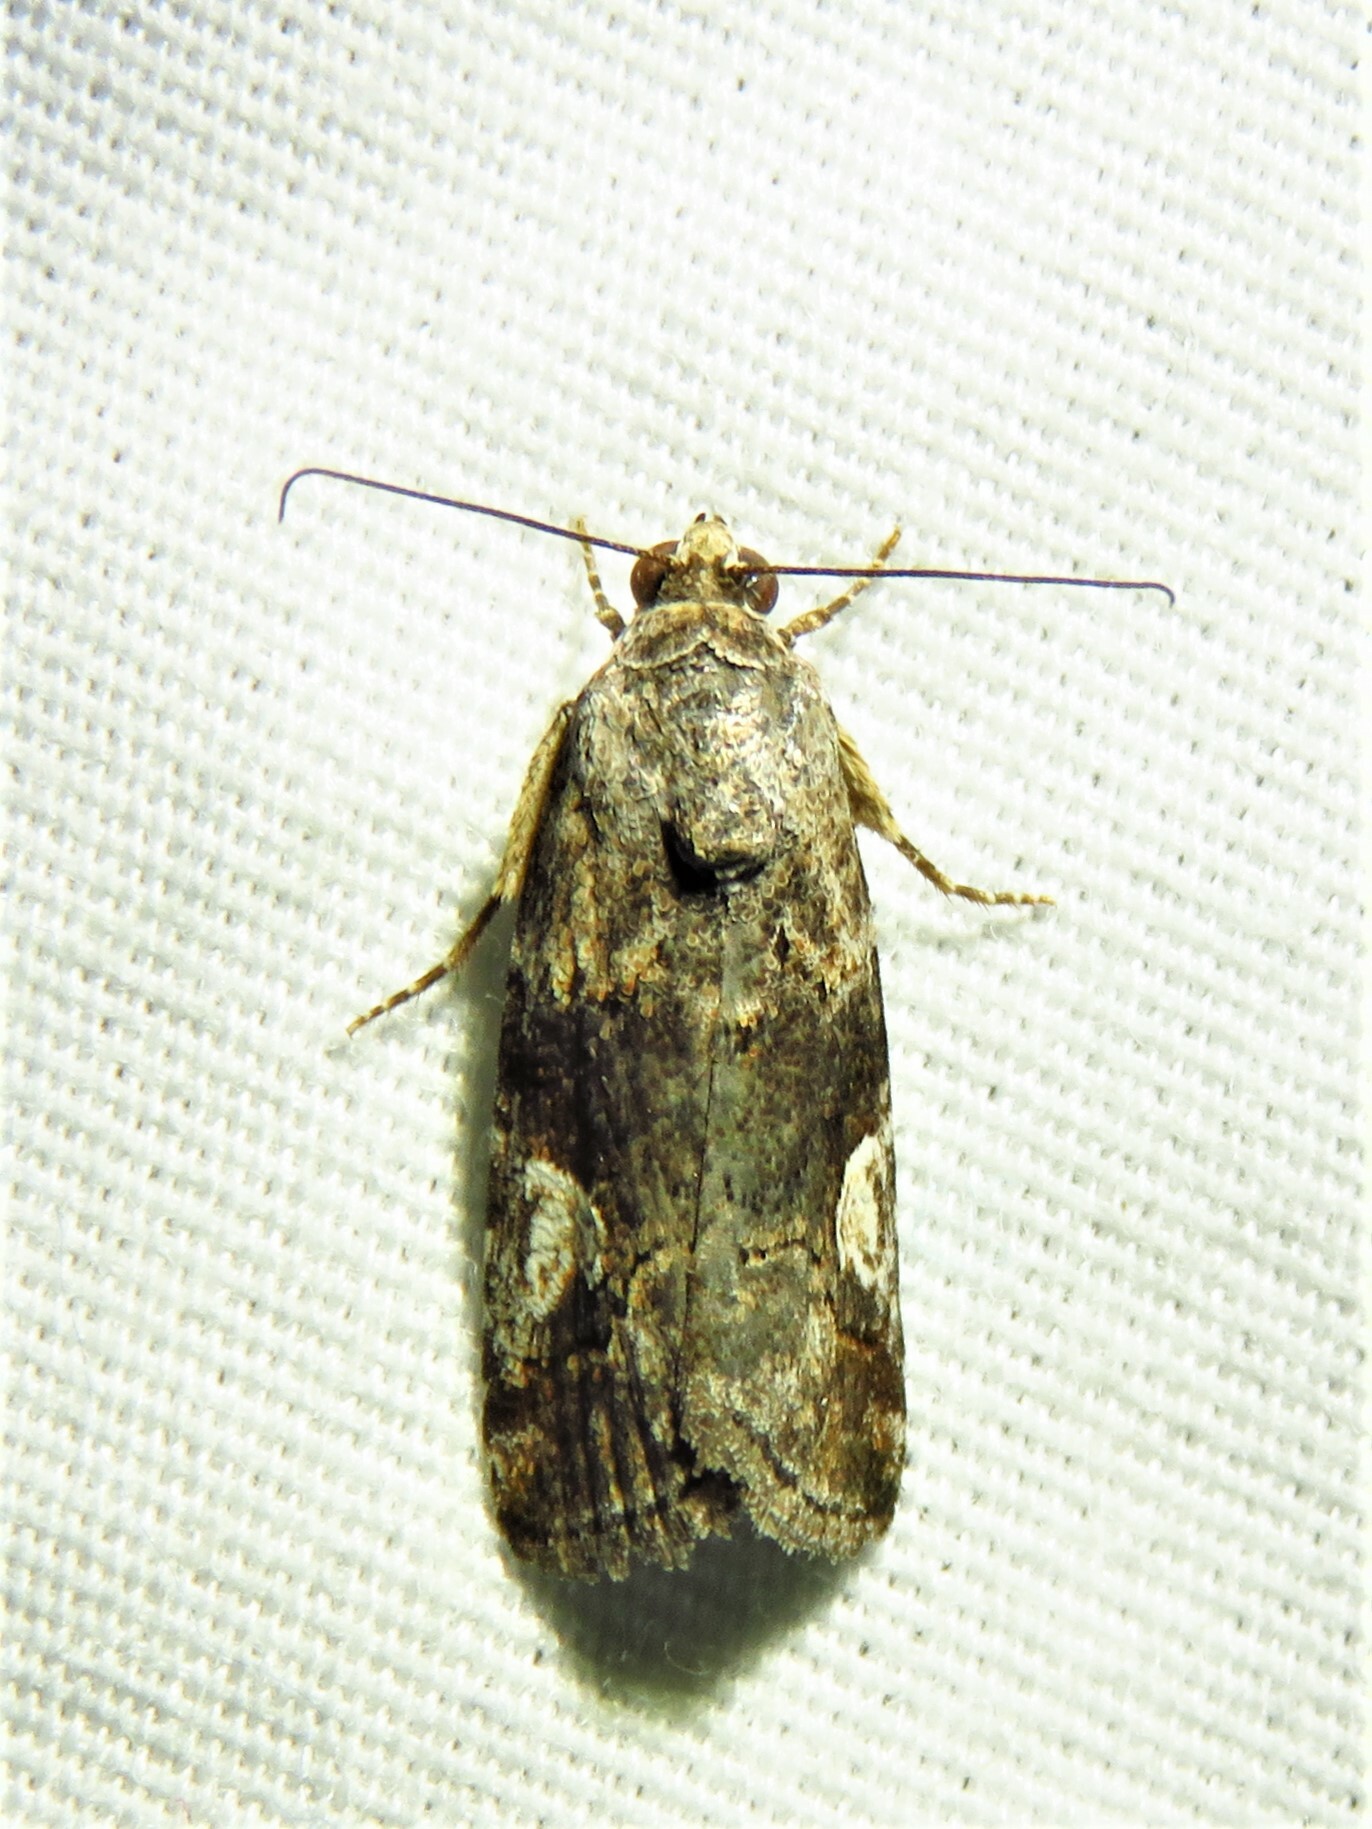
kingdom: Animalia
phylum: Arthropoda
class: Insecta
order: Lepidoptera
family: Noctuidae
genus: Metaponpneumata
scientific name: Metaponpneumata rogenhoferi
